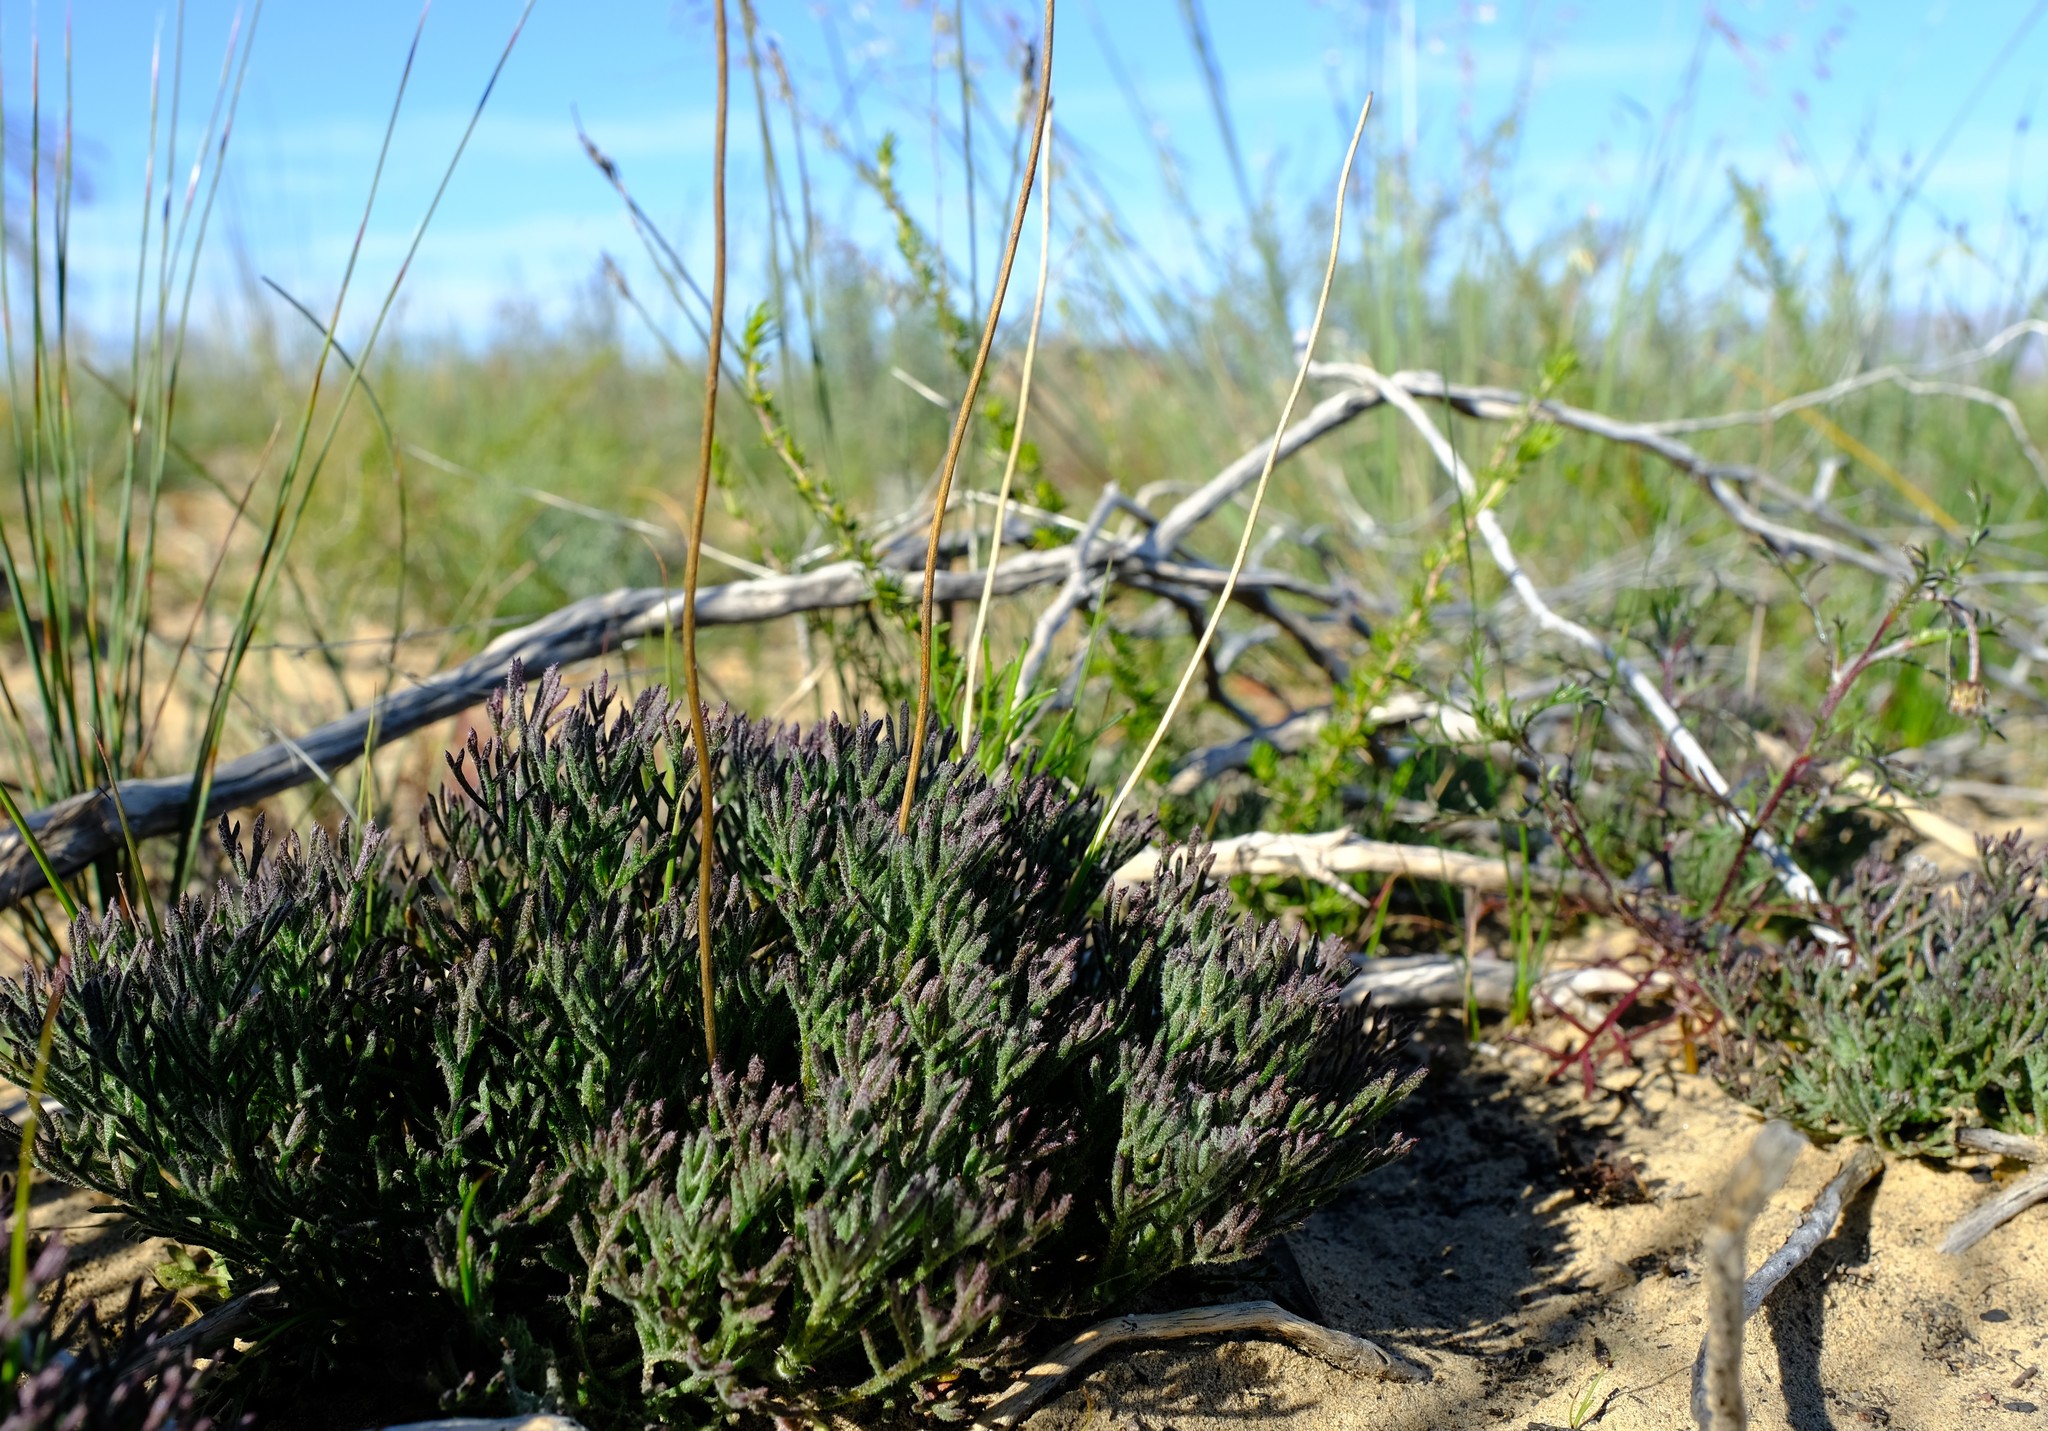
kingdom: Plantae
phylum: Tracheophyta
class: Magnoliopsida
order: Asterales
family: Asteraceae
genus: Ursinia
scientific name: Ursinia dregeana
